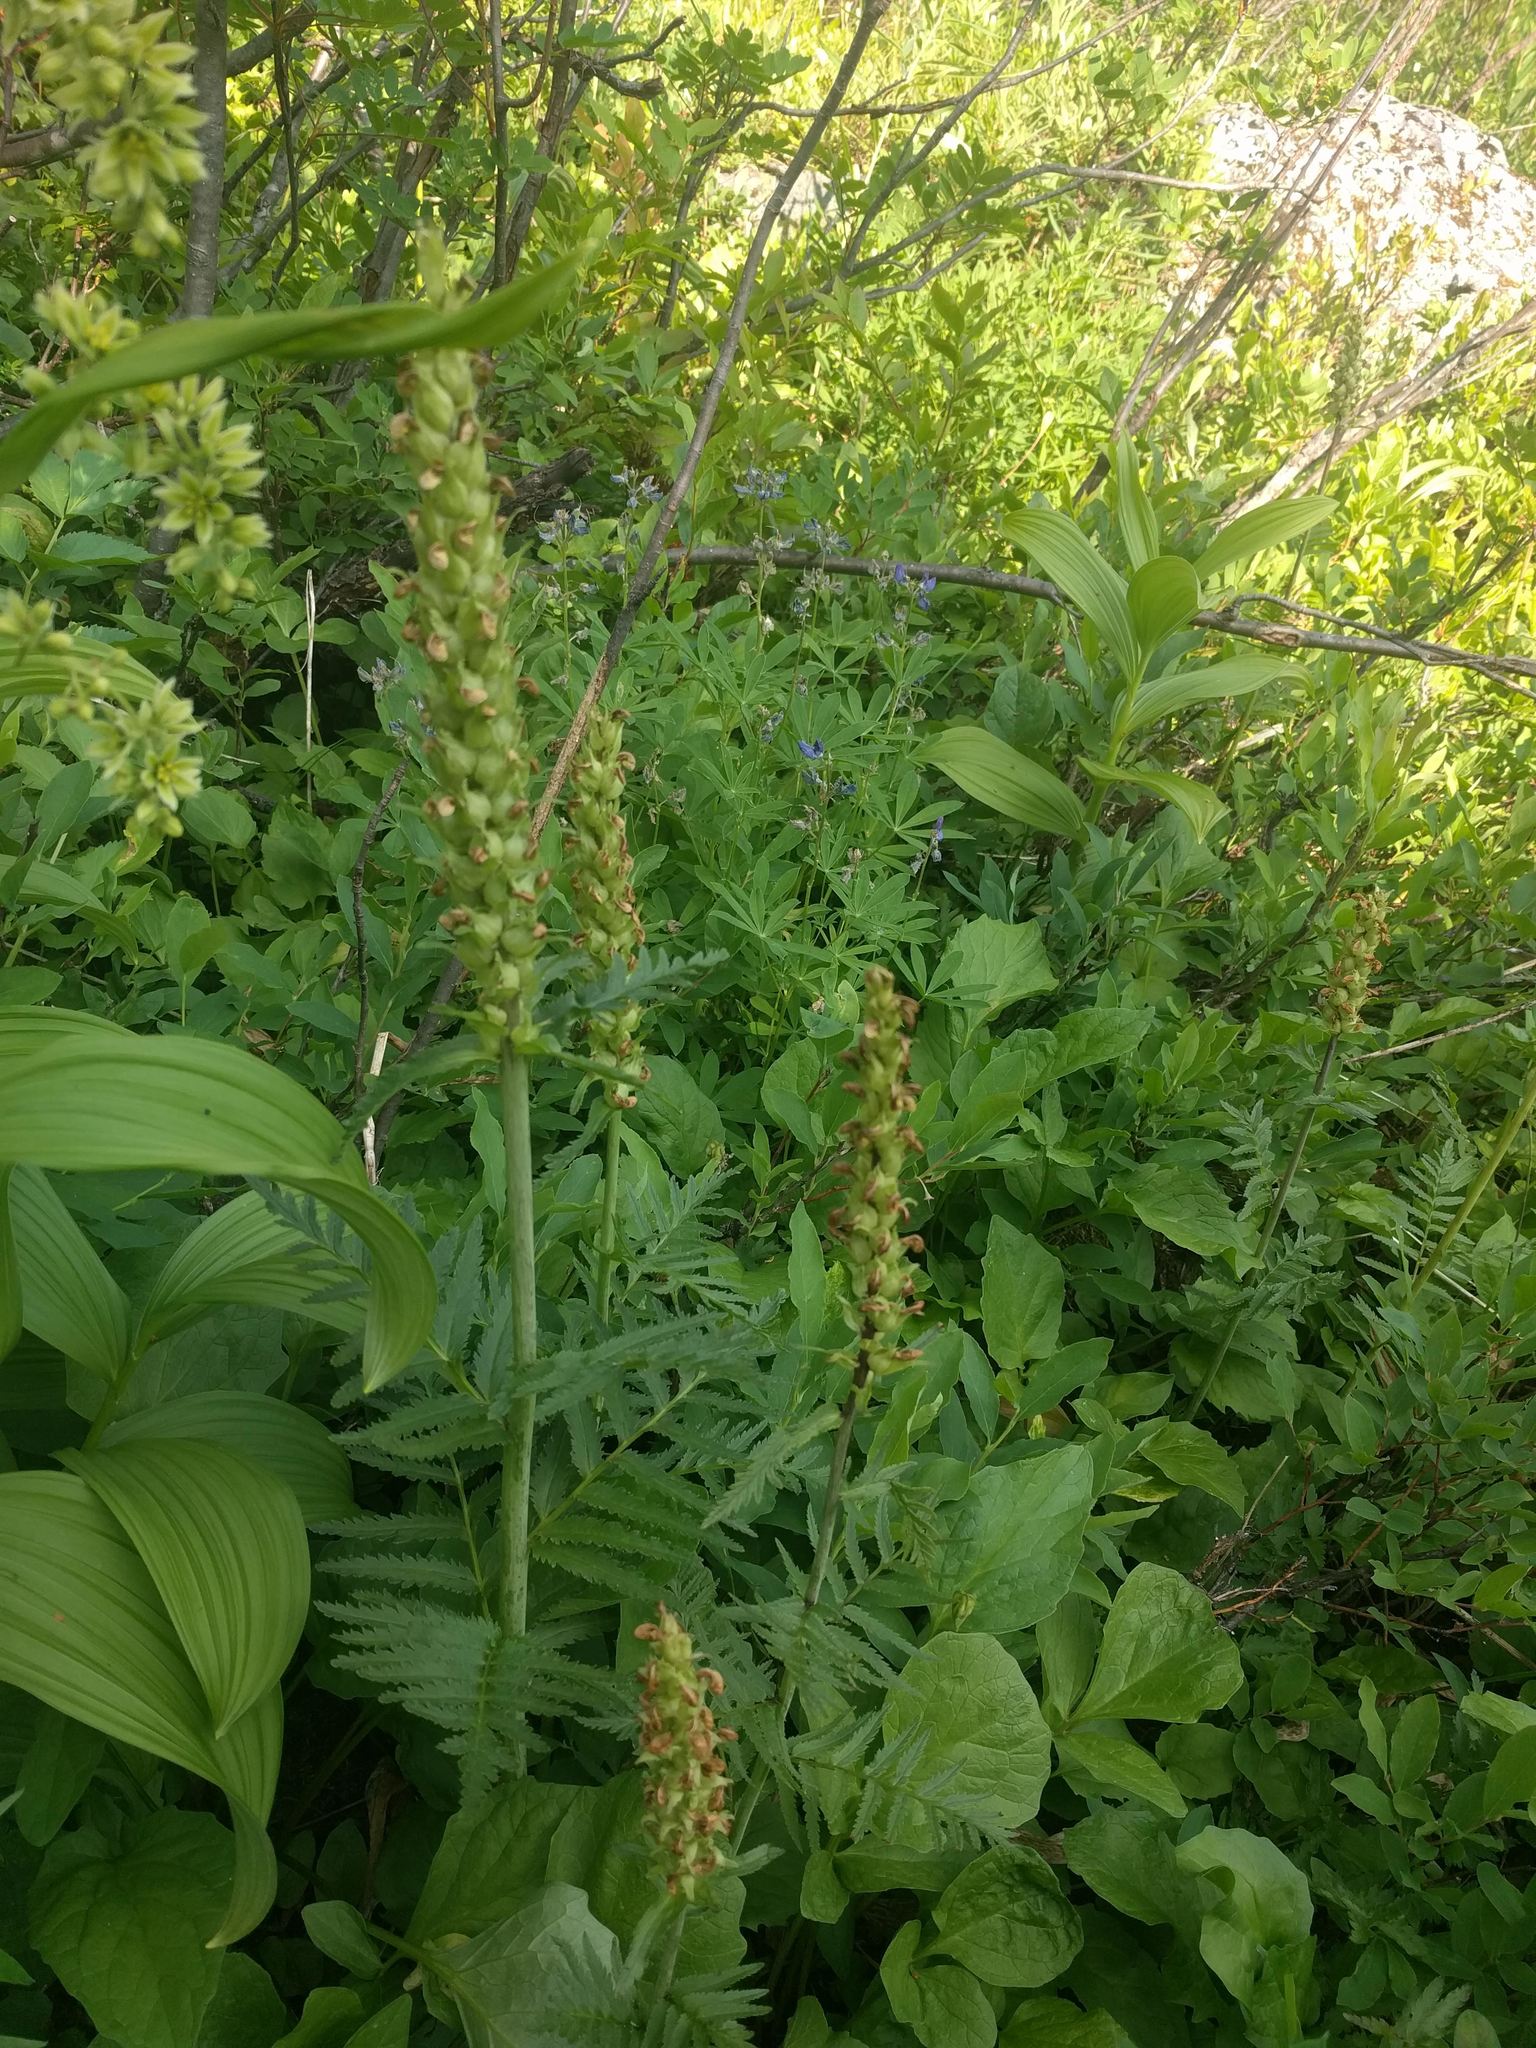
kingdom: Plantae
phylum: Tracheophyta
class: Magnoliopsida
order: Lamiales
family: Orobanchaceae
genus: Pedicularis
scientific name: Pedicularis bracteosa
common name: Bracted lousewort
